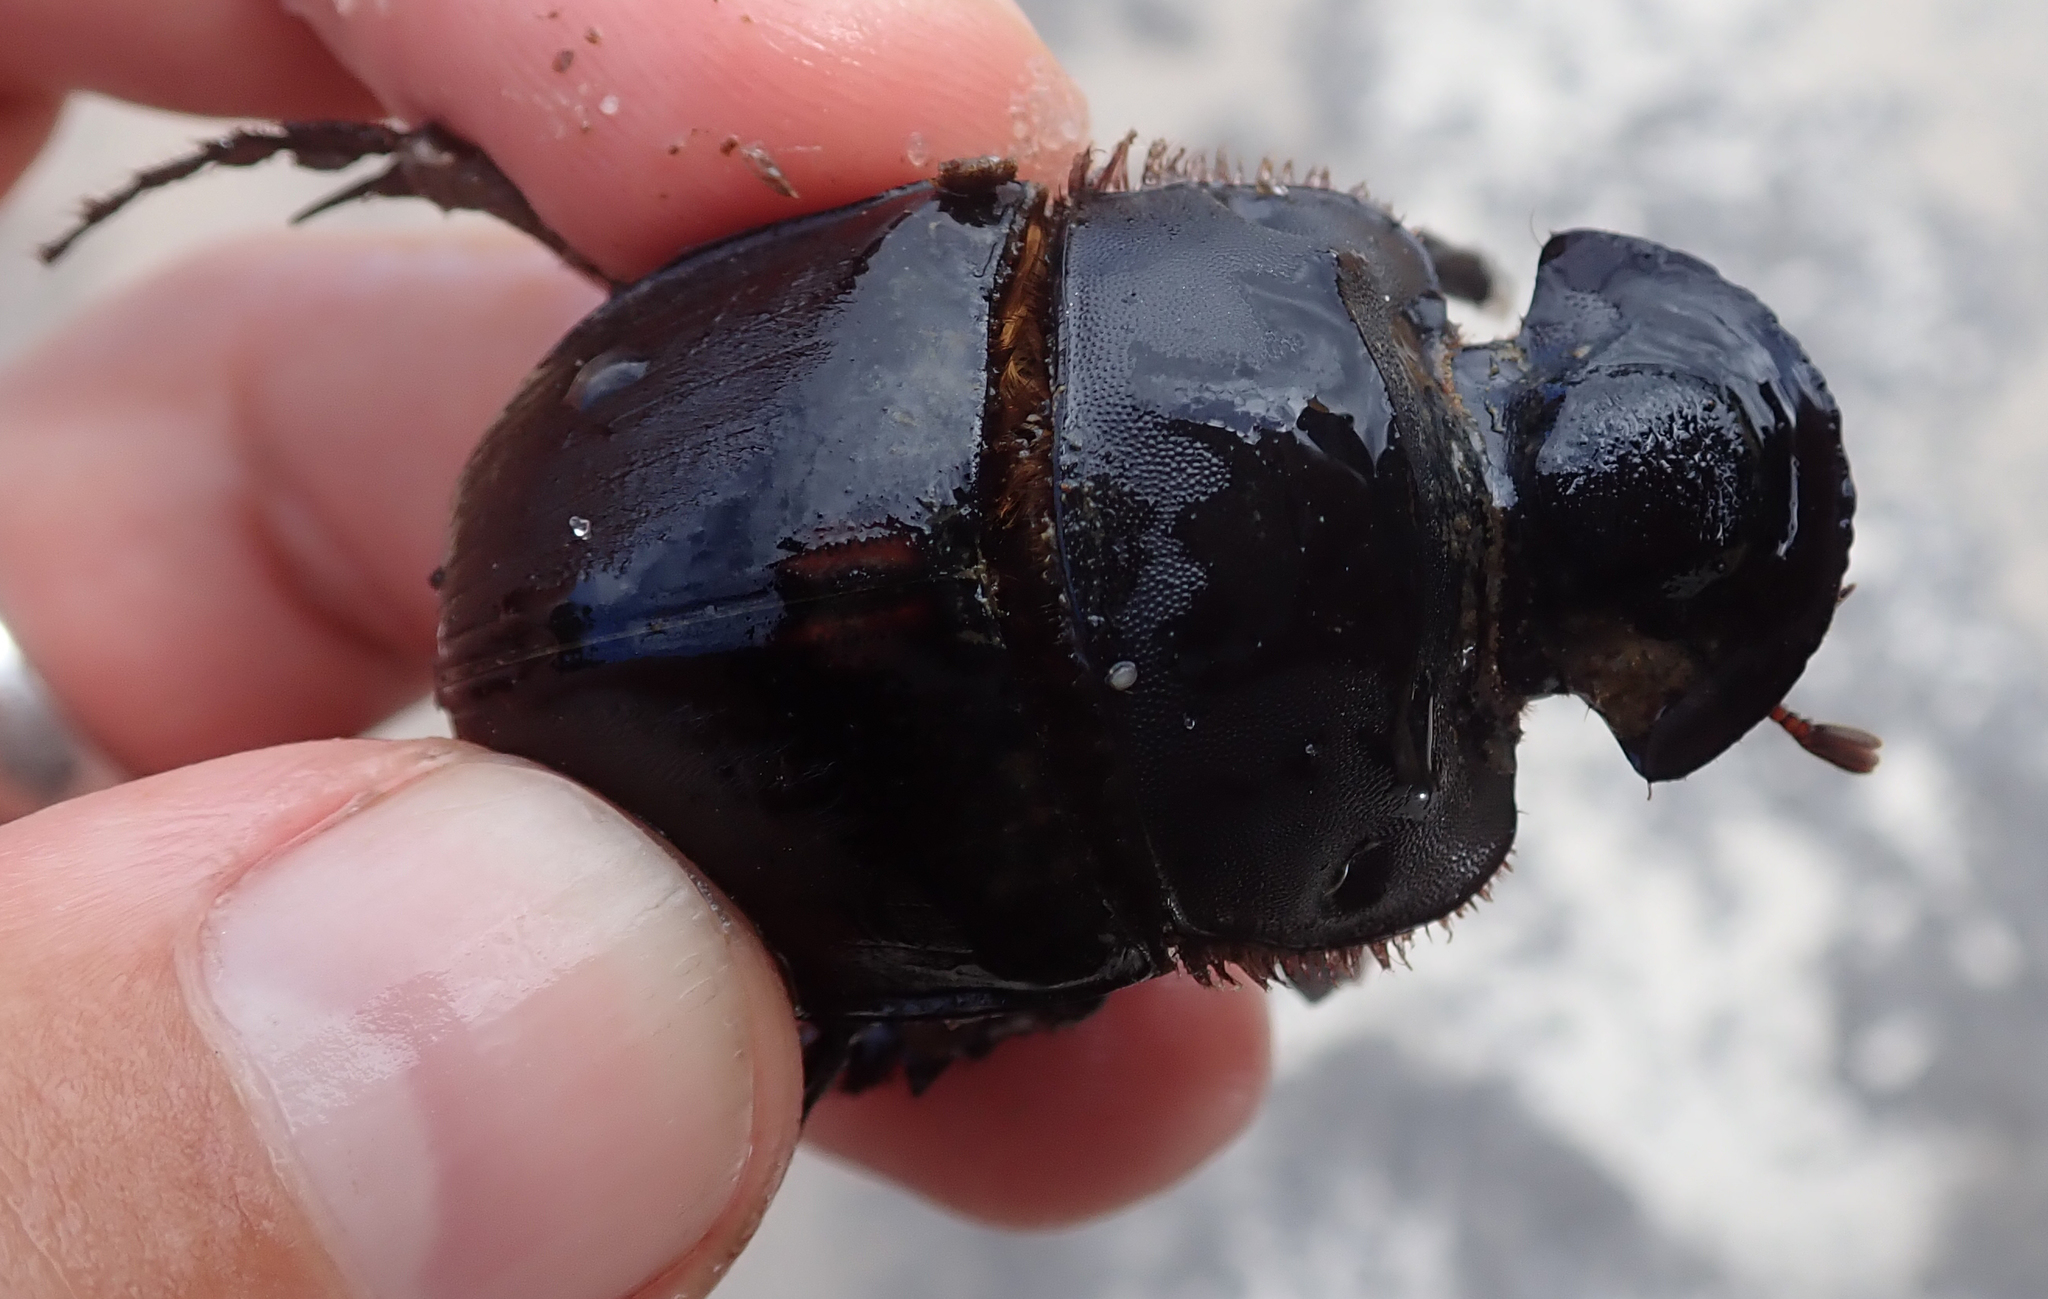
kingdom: Animalia
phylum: Arthropoda
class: Insecta
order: Coleoptera
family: Scarabaeidae
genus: Catharsius
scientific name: Catharsius heros
